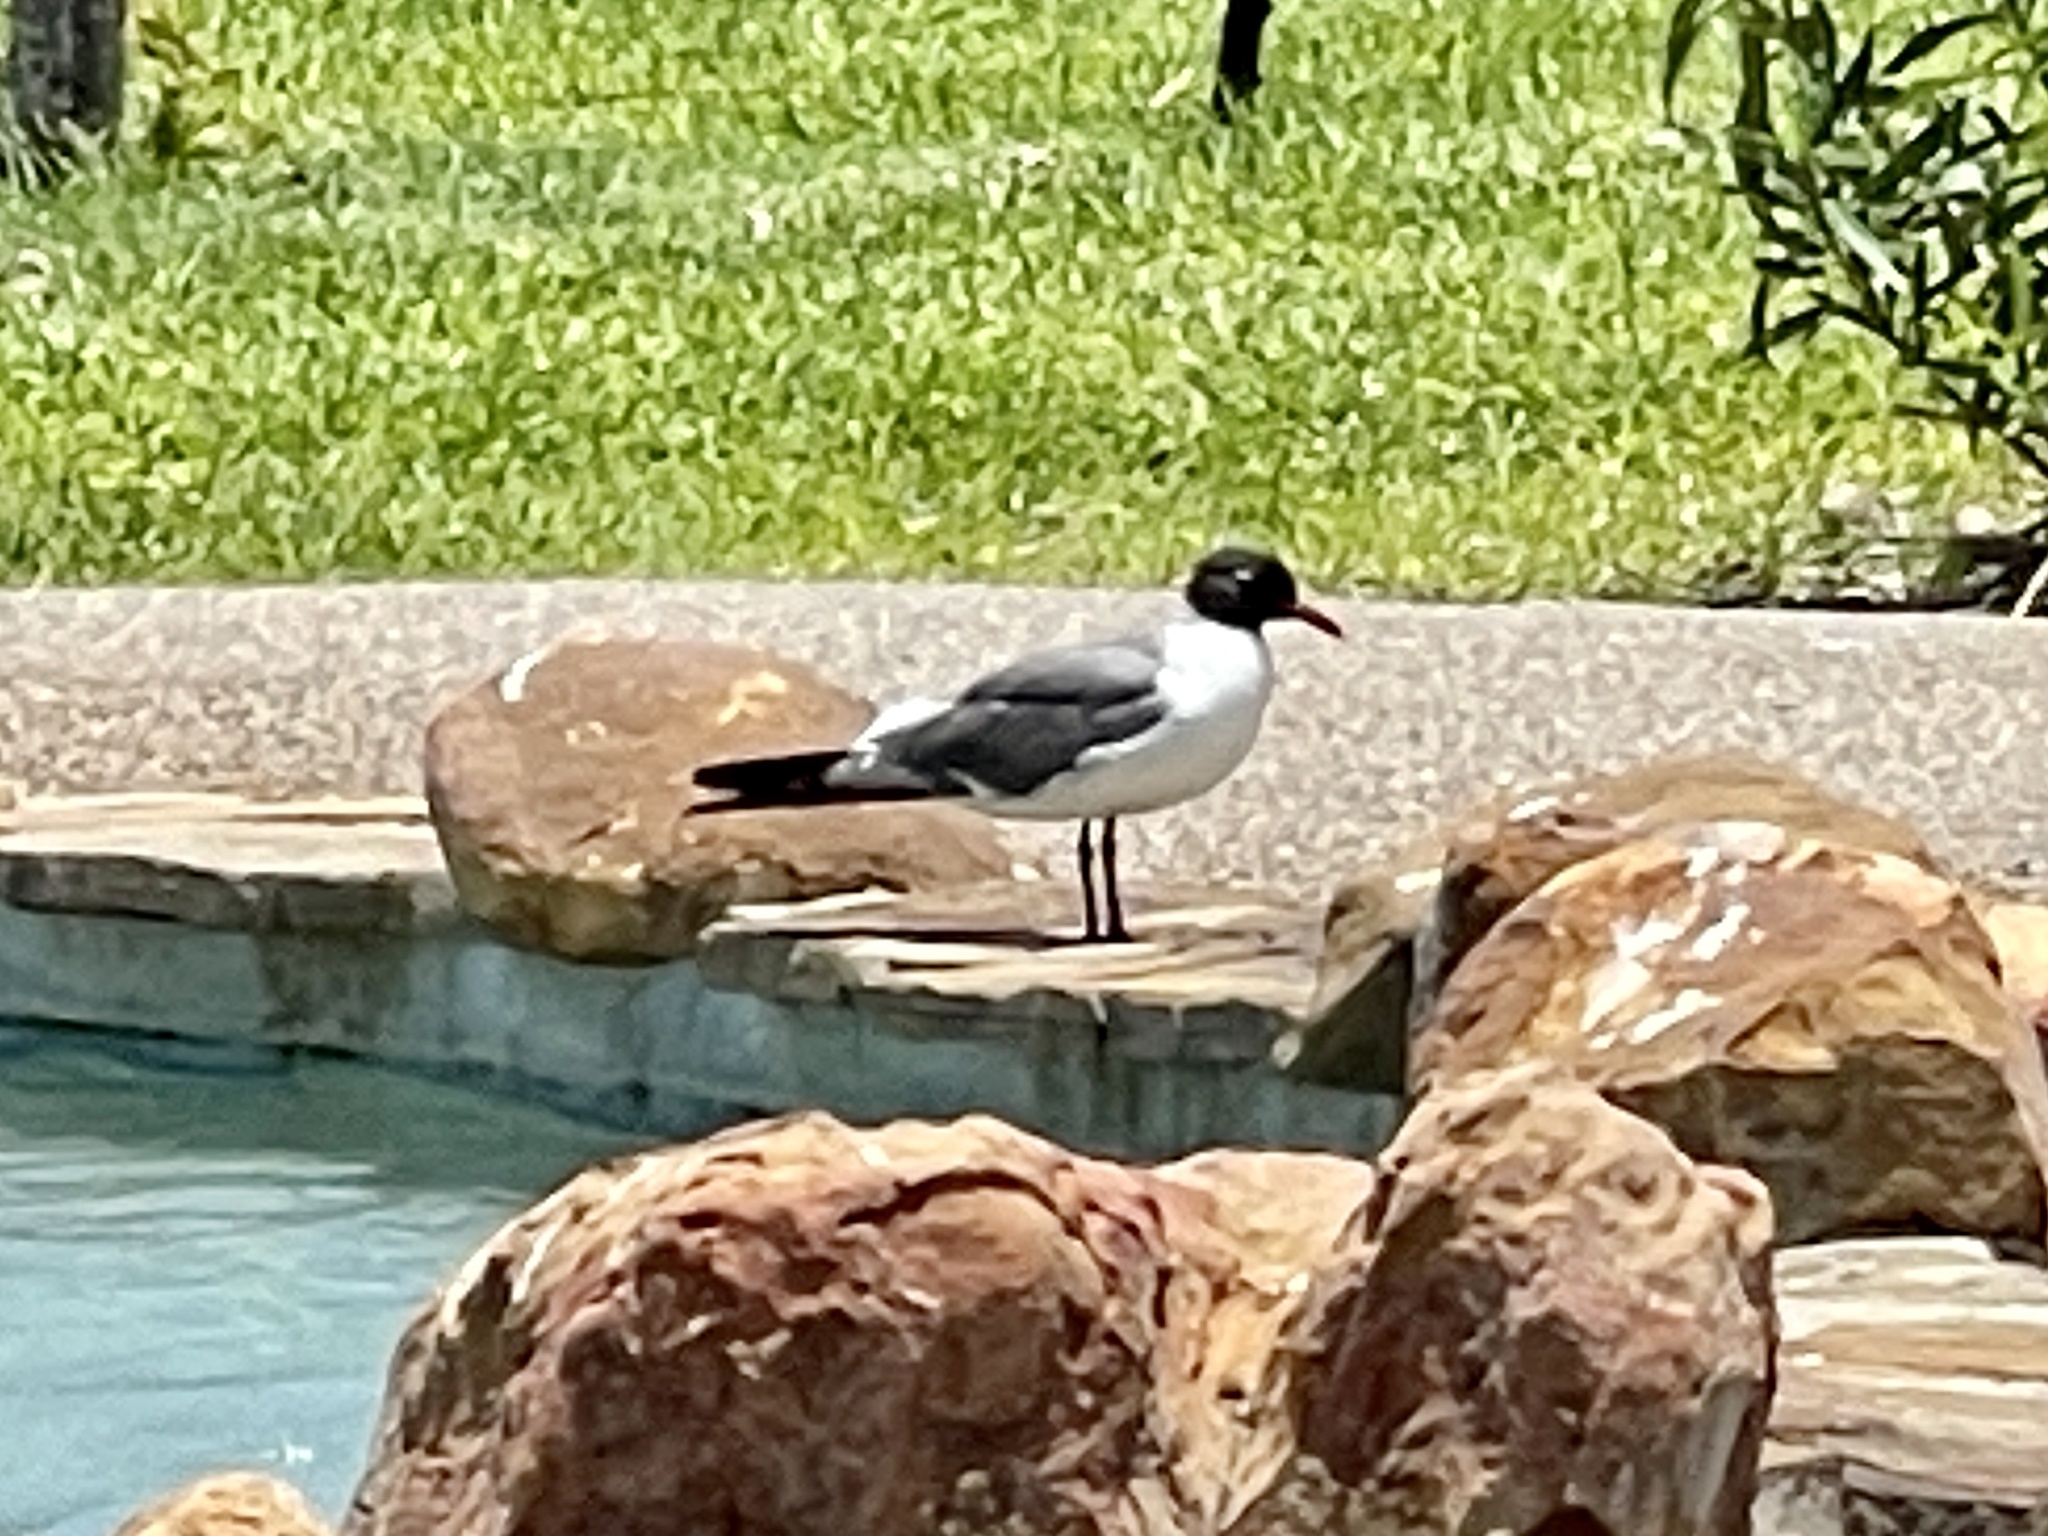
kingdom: Animalia
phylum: Chordata
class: Aves
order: Charadriiformes
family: Laridae
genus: Leucophaeus
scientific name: Leucophaeus atricilla
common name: Laughing gull
